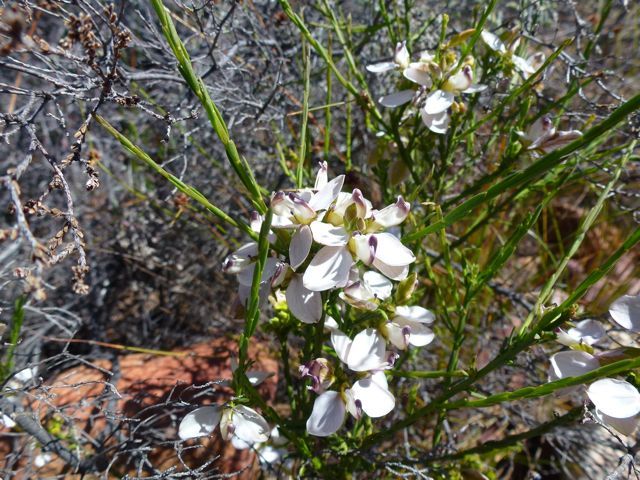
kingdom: Plantae
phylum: Tracheophyta
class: Magnoliopsida
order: Fabales
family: Polygalaceae
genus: Polygala
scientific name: Polygala microlopha
